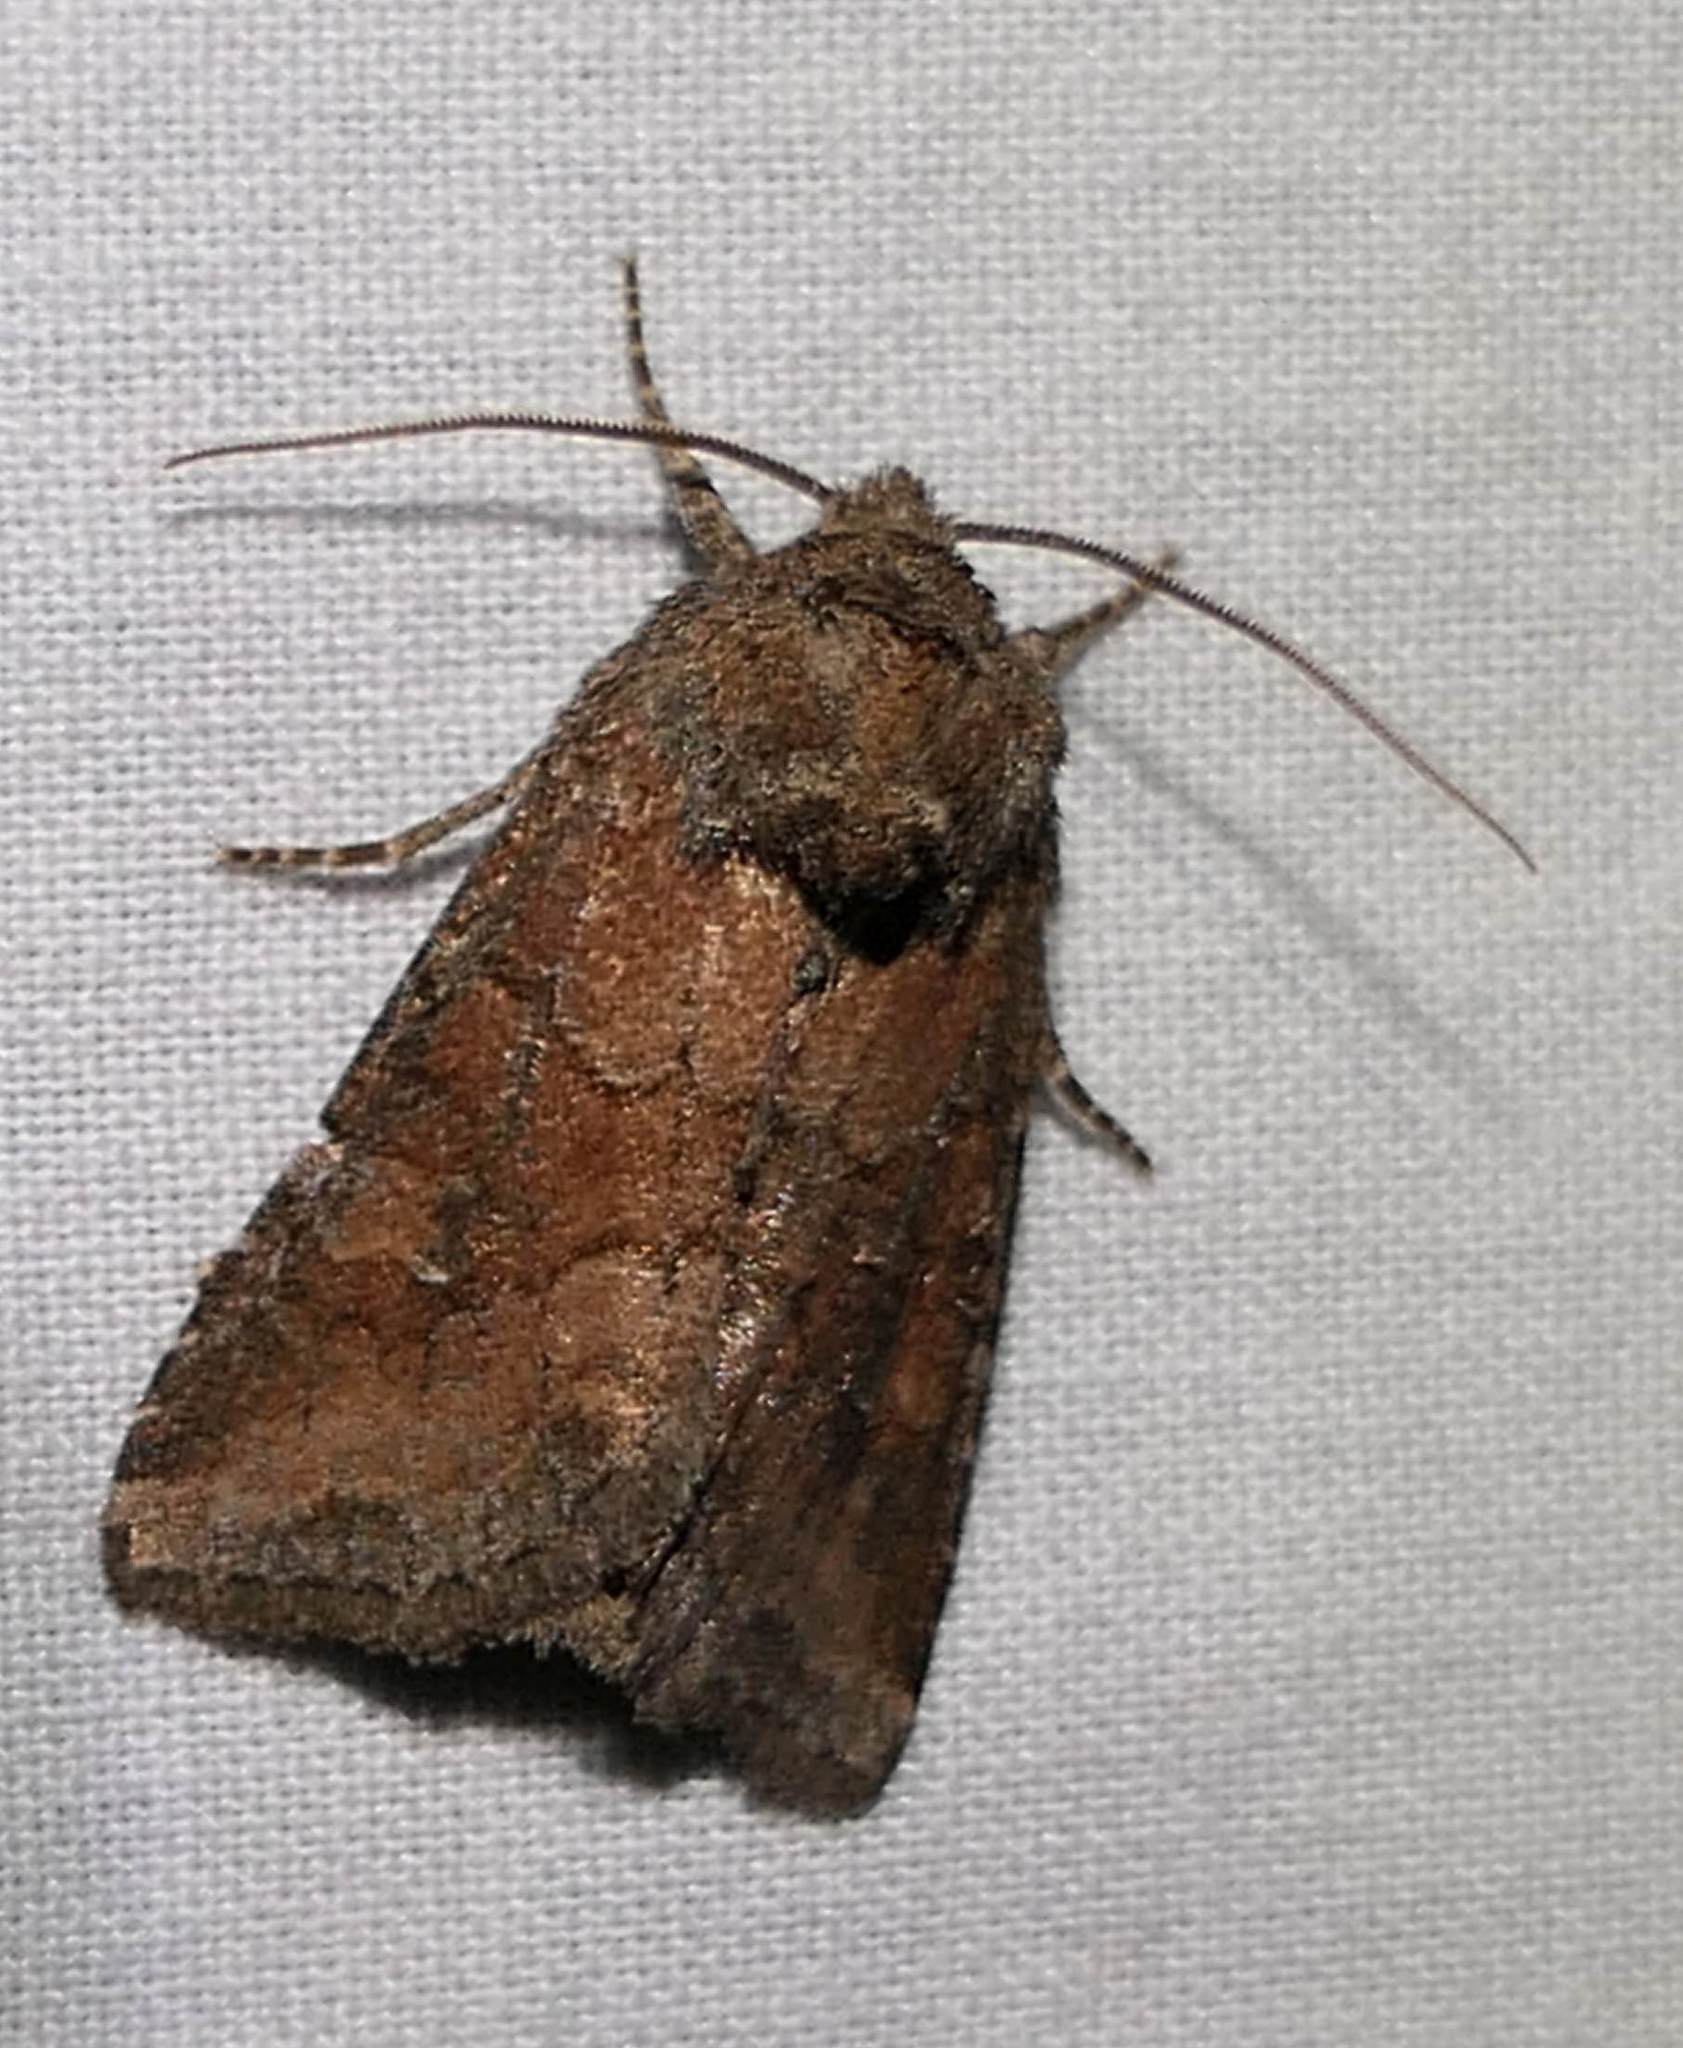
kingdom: Animalia
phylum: Arthropoda
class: Insecta
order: Lepidoptera
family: Noctuidae
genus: Lacinipolia
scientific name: Lacinipolia meditata
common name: Thinker moth
